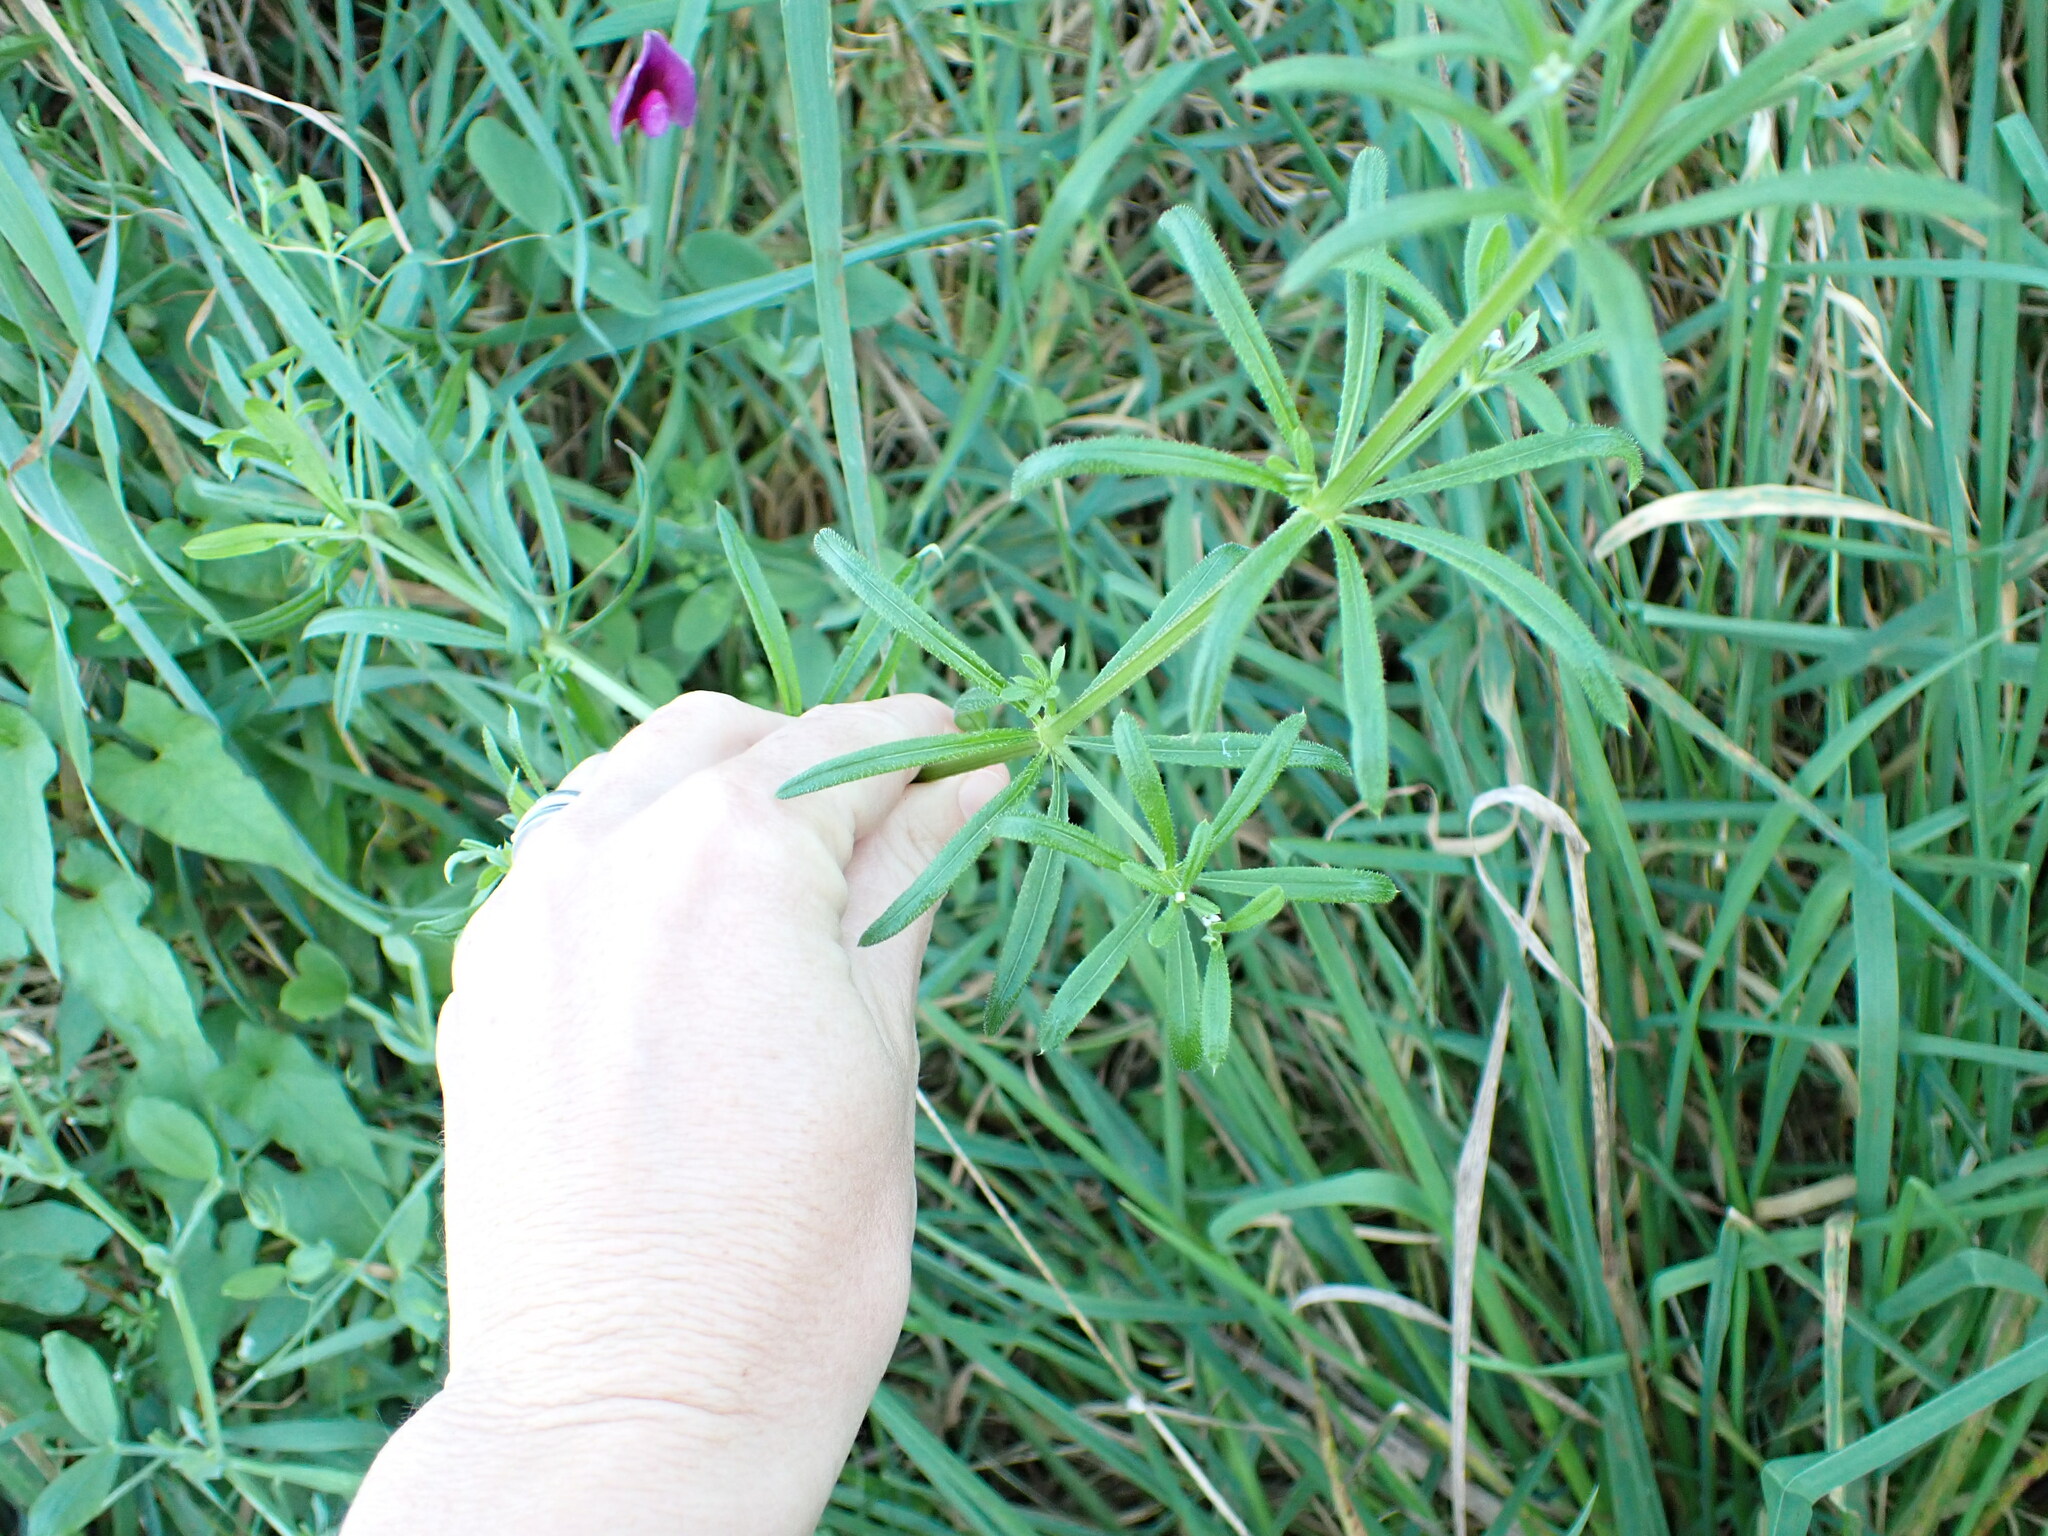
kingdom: Plantae
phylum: Tracheophyta
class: Magnoliopsida
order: Gentianales
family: Rubiaceae
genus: Galium
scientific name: Galium aparine
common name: Cleavers
